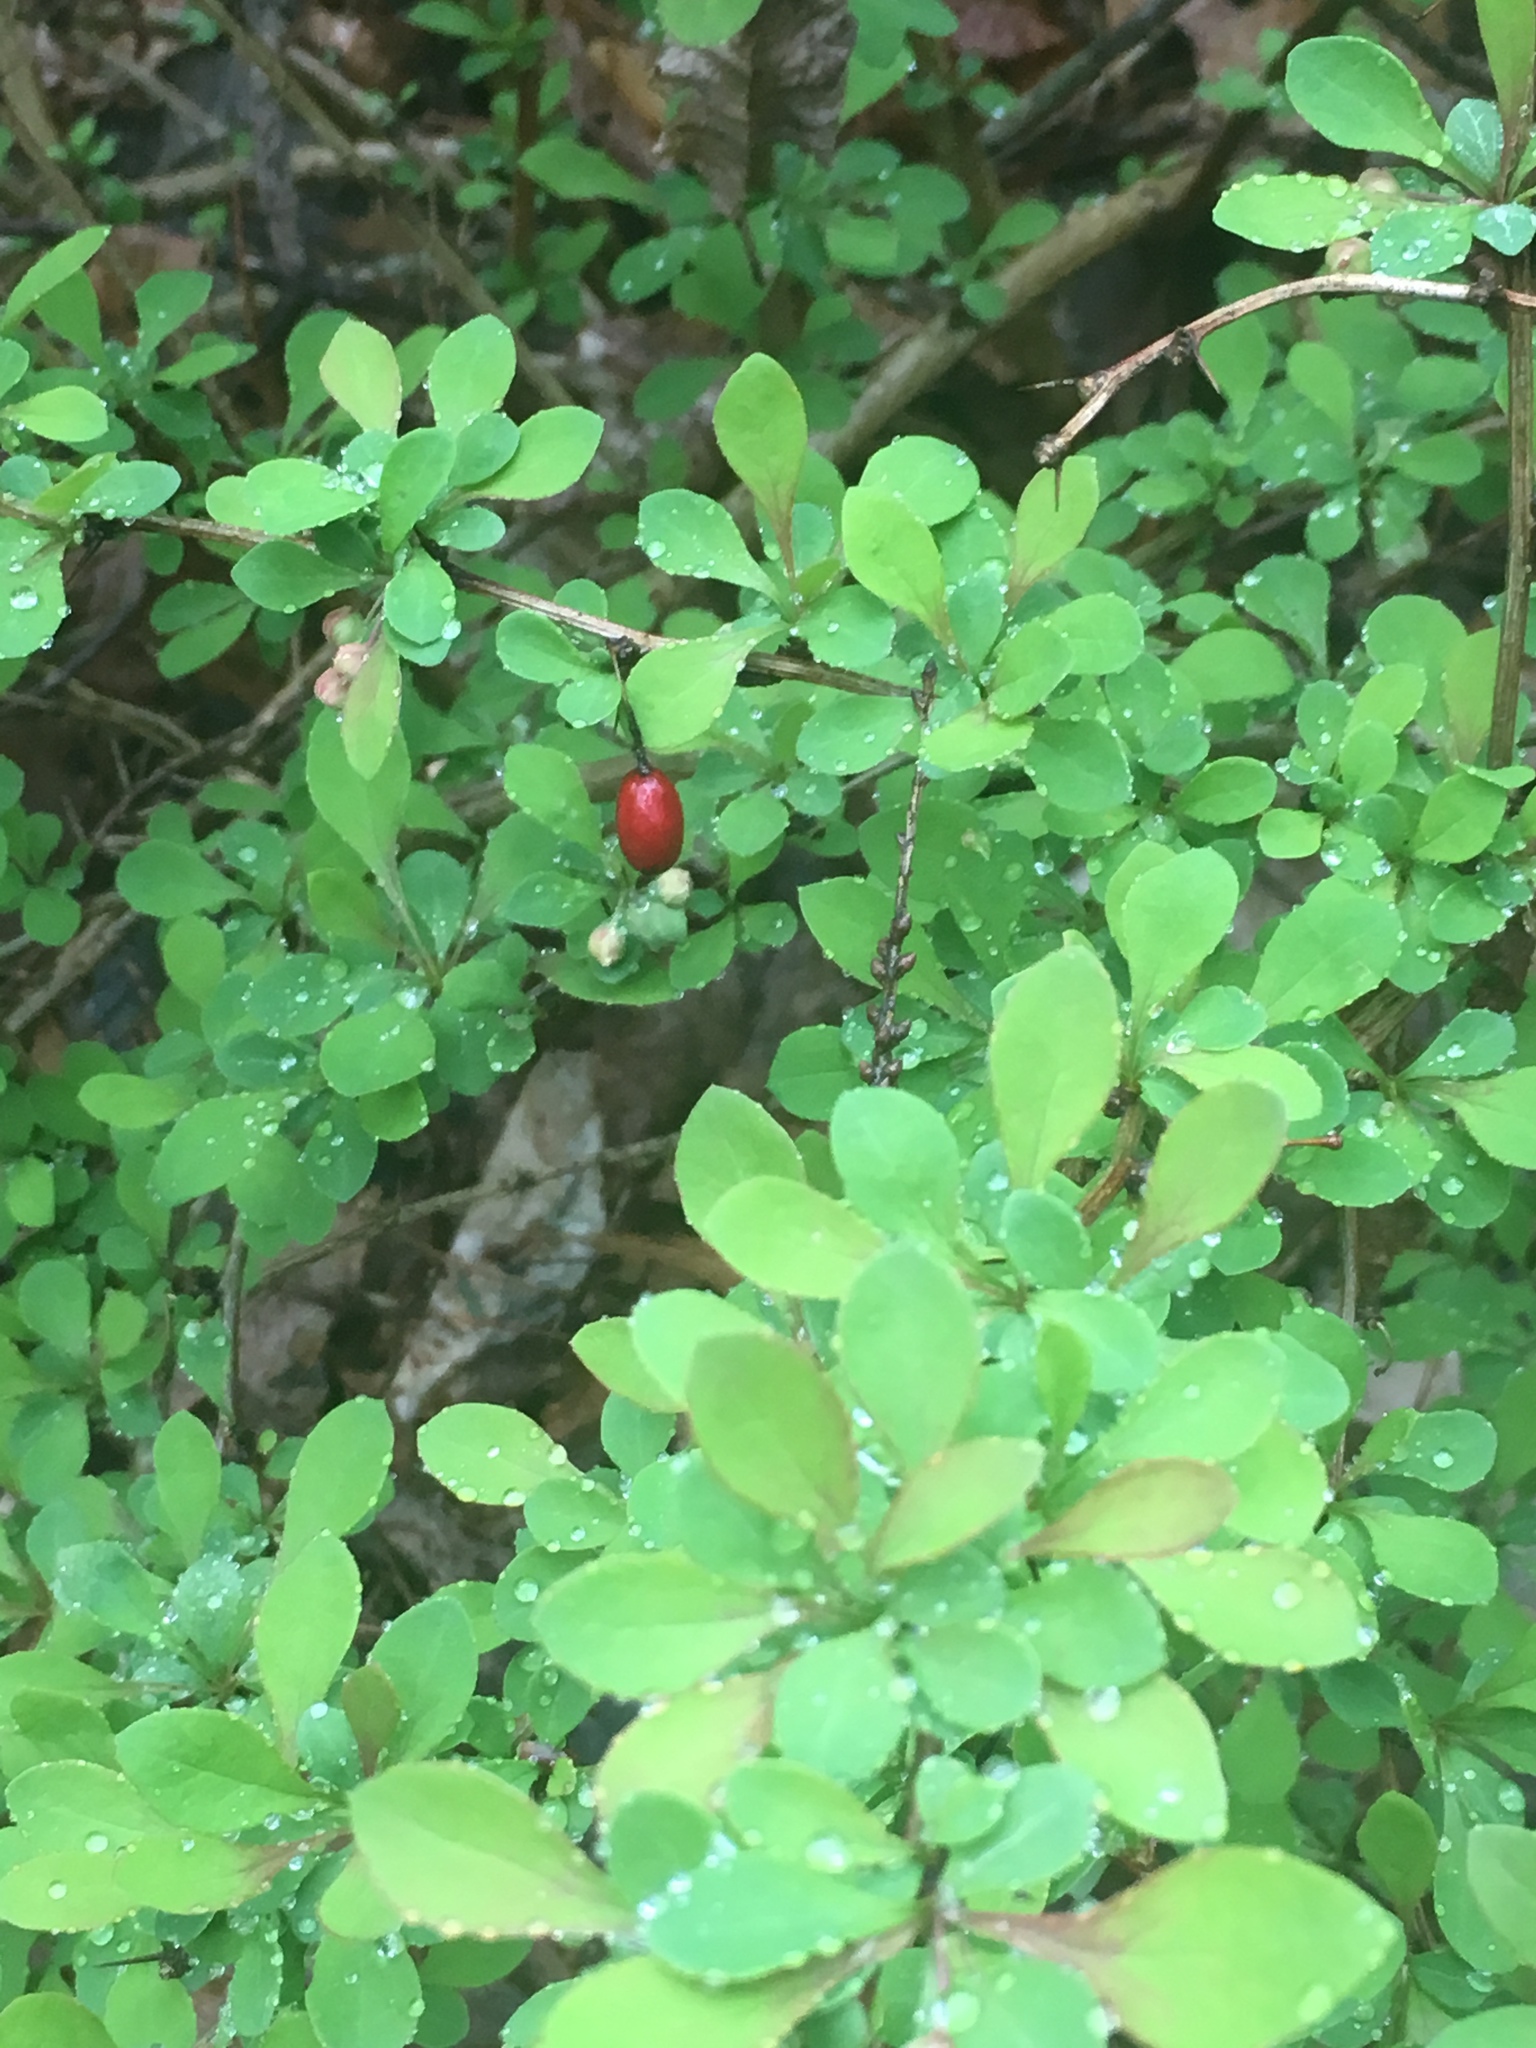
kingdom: Plantae
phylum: Tracheophyta
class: Magnoliopsida
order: Ranunculales
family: Berberidaceae
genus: Berberis
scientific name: Berberis thunbergii
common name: Japanese barberry
